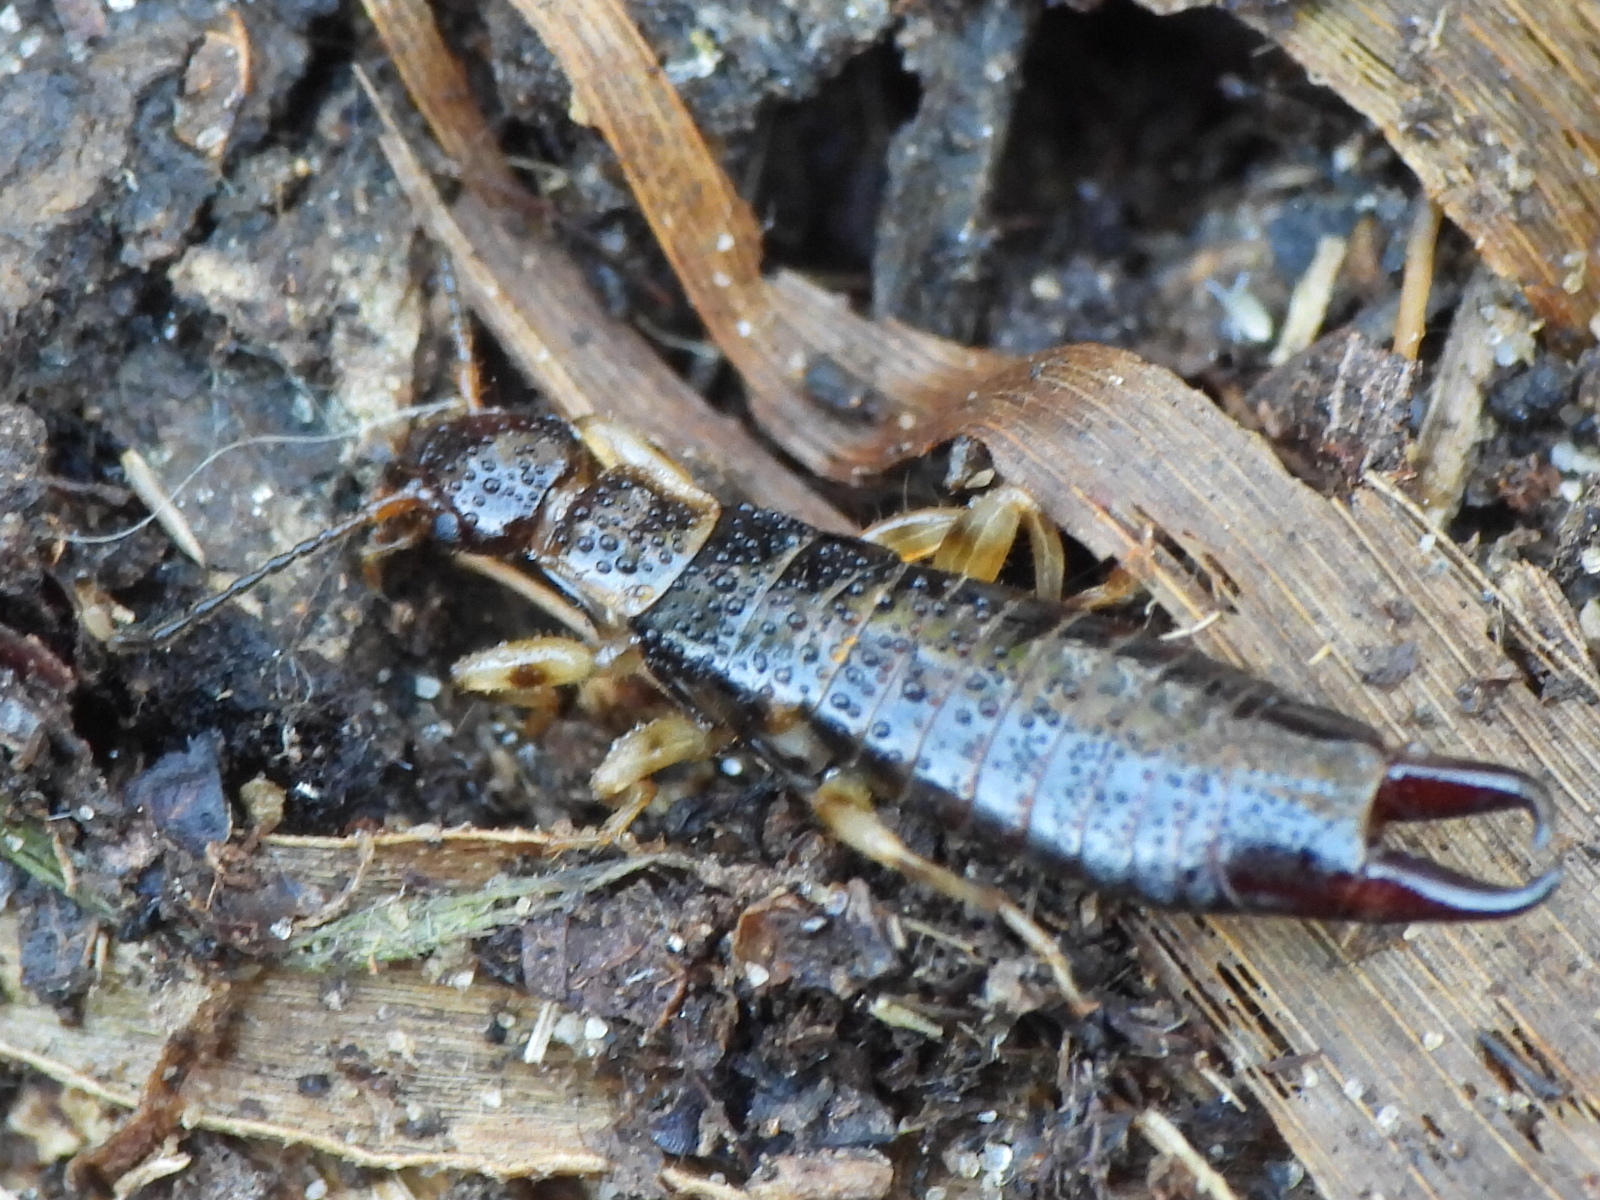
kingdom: Animalia
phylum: Arthropoda
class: Insecta
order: Dermaptera
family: Anisolabididae
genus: Euborellia
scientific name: Euborellia annulipes
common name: Ringlegged earwig
